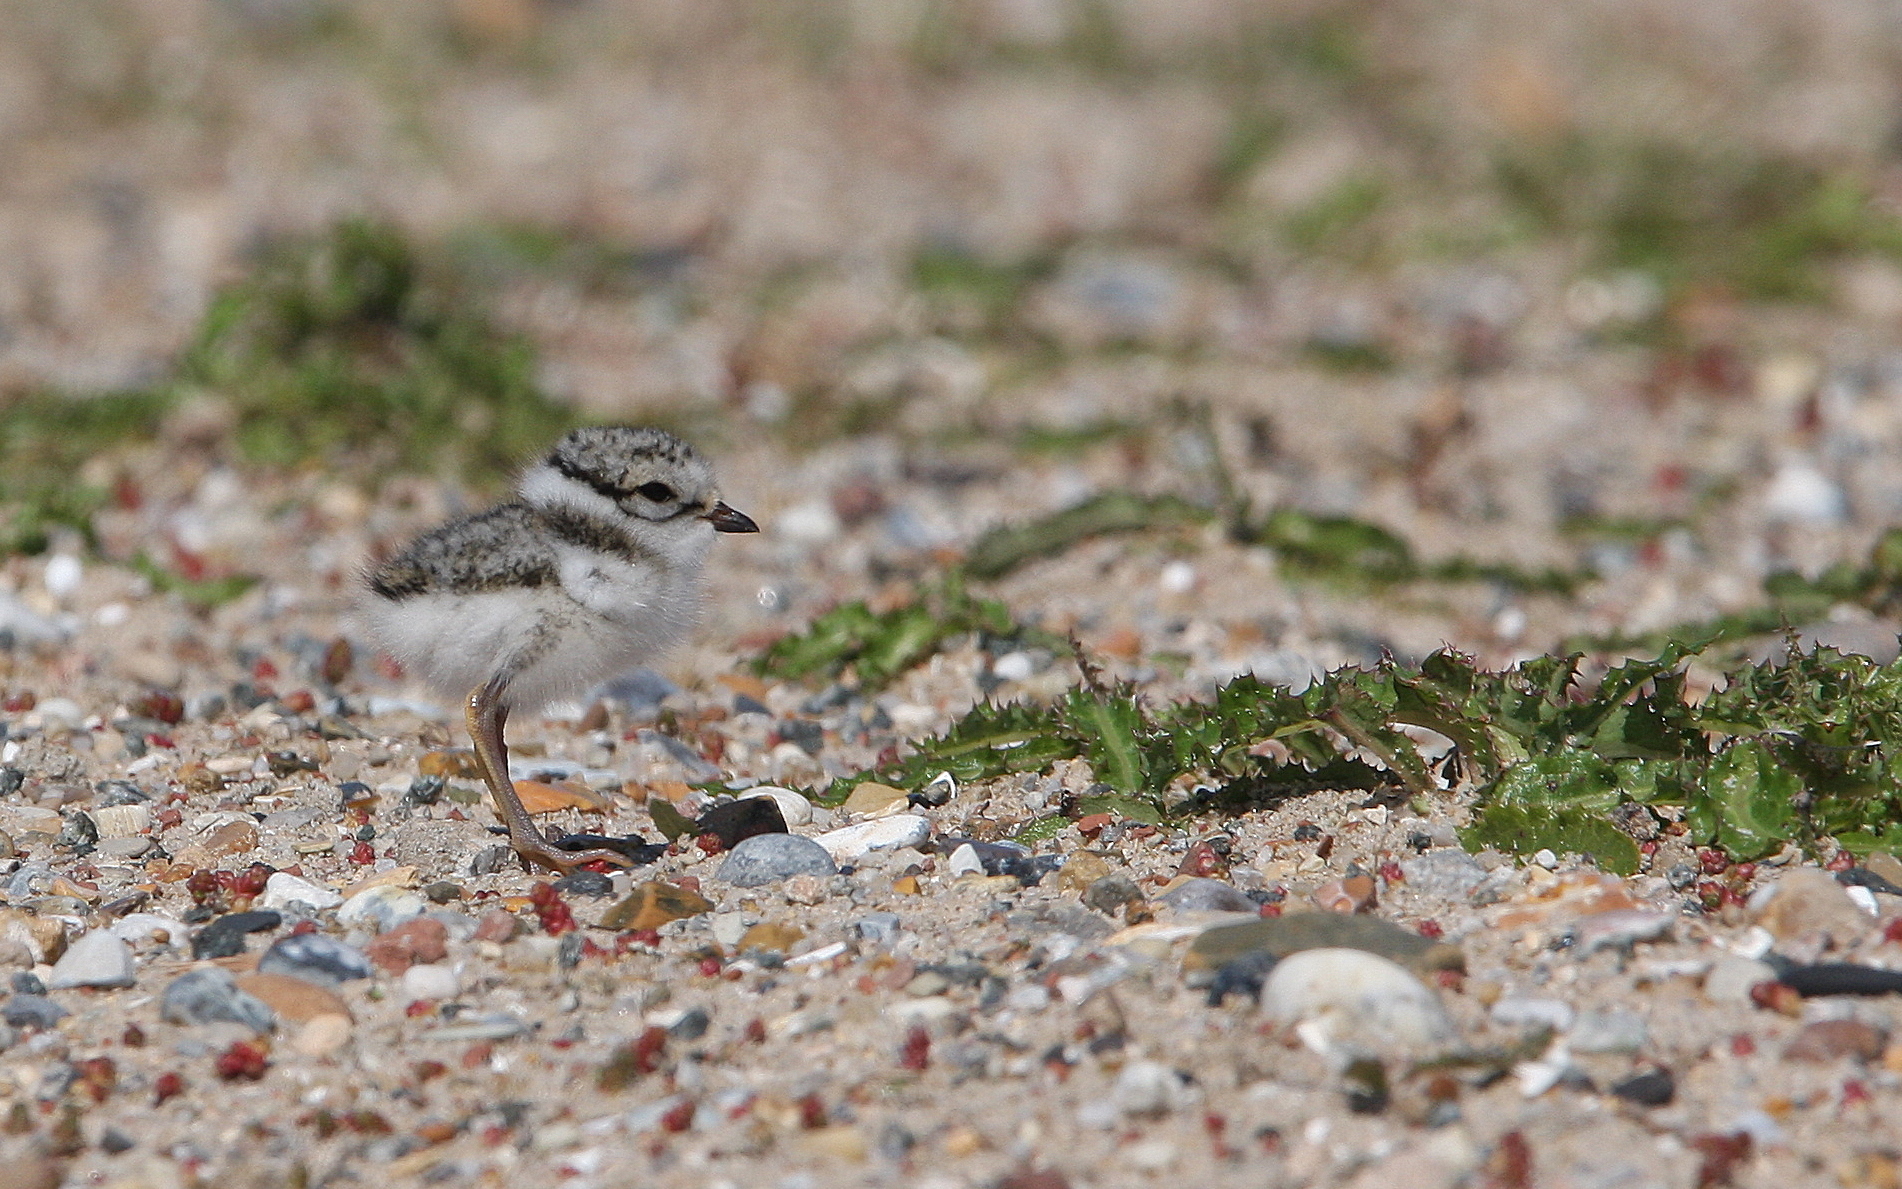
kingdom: Animalia
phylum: Chordata
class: Aves
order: Charadriiformes
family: Charadriidae
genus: Charadrius
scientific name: Charadrius hiaticula
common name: Common ringed plover
